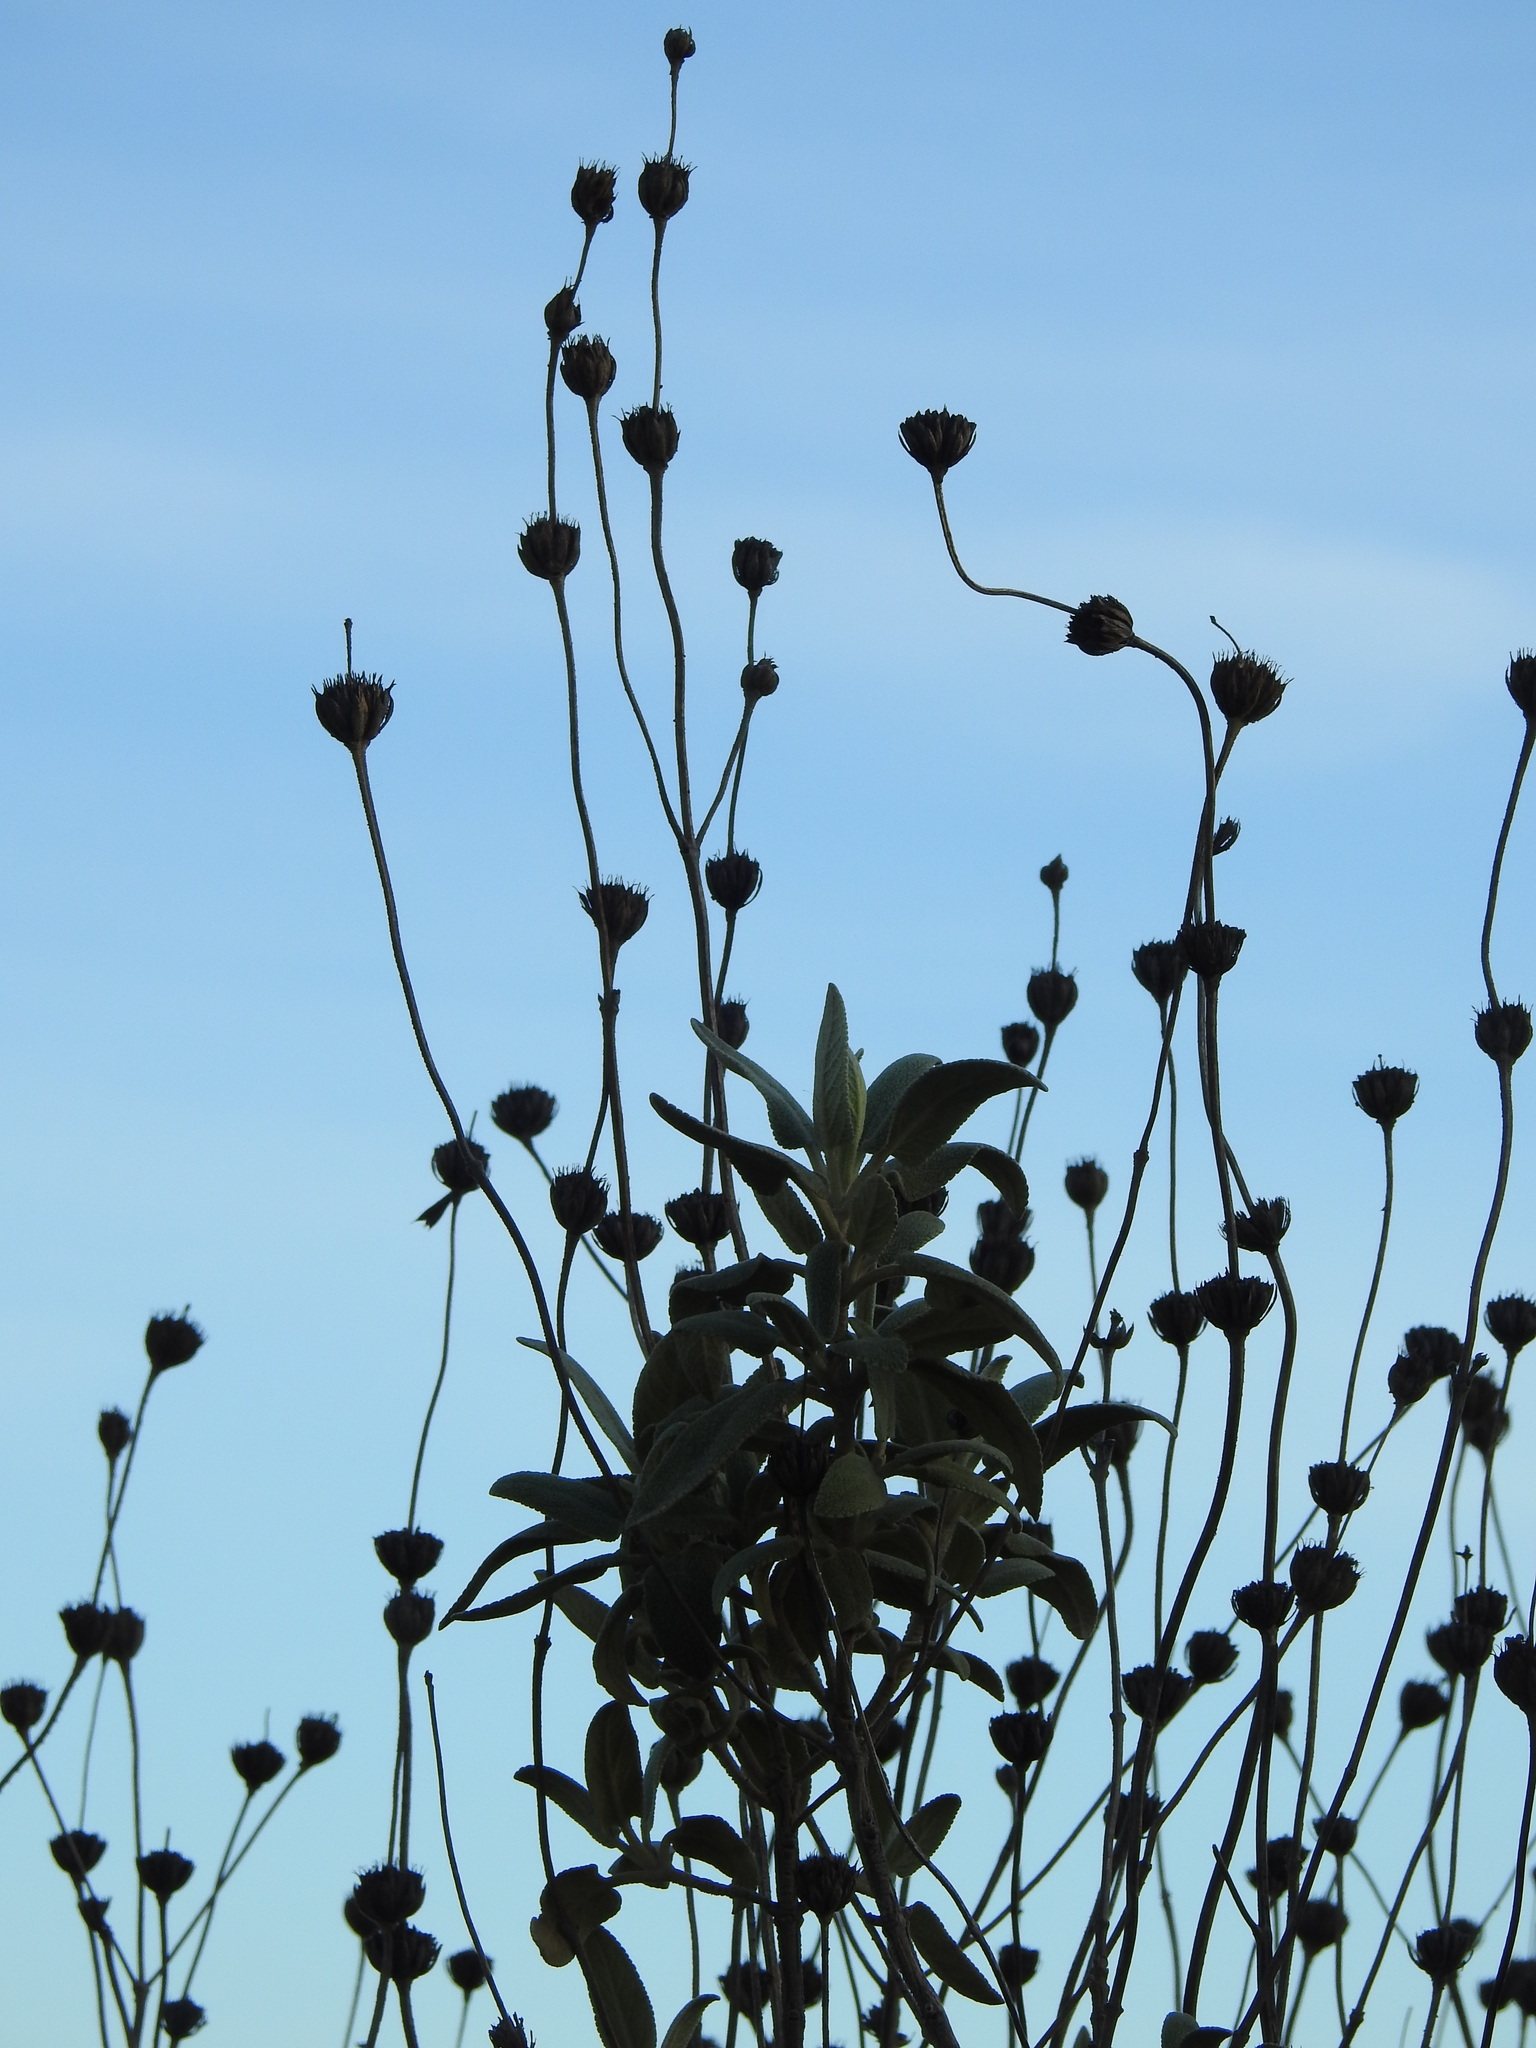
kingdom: Plantae
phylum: Tracheophyta
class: Magnoliopsida
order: Lamiales
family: Lamiaceae
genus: Phlomis
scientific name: Phlomis purpurea
